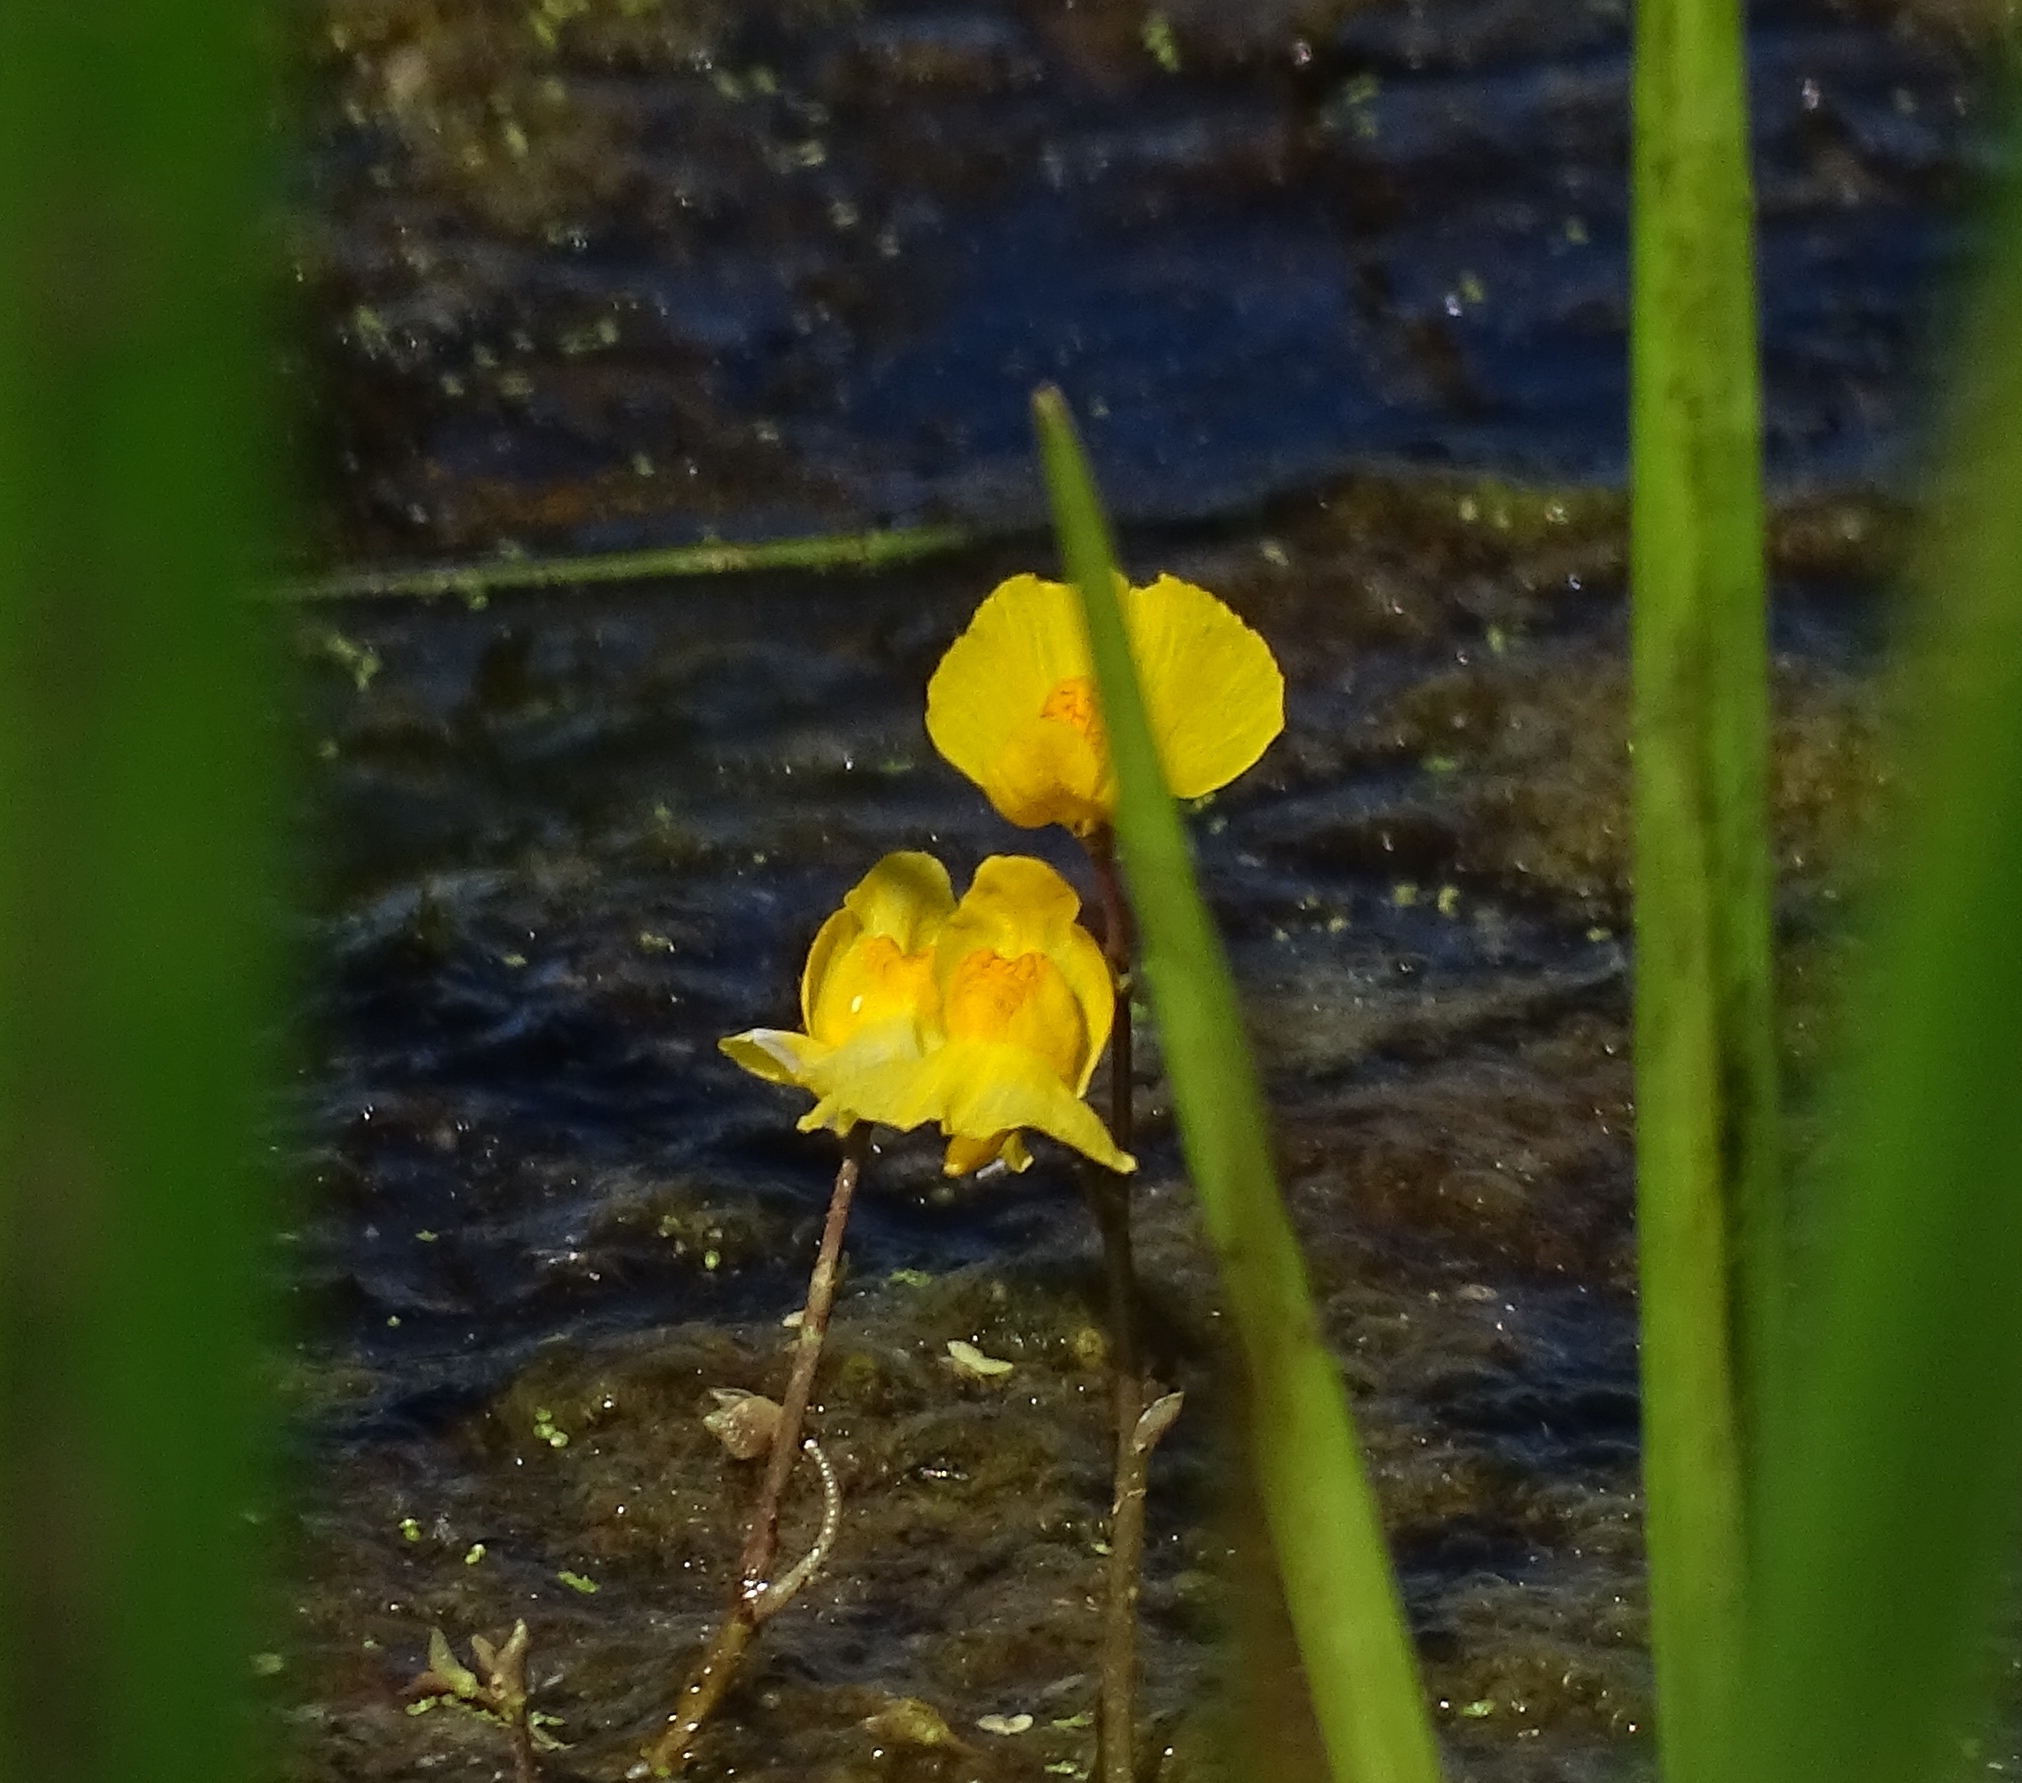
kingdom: Plantae
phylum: Tracheophyta
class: Magnoliopsida
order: Lamiales
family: Lentibulariaceae
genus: Utricularia
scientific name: Utricularia macrorhiza
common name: Common bladderwort
